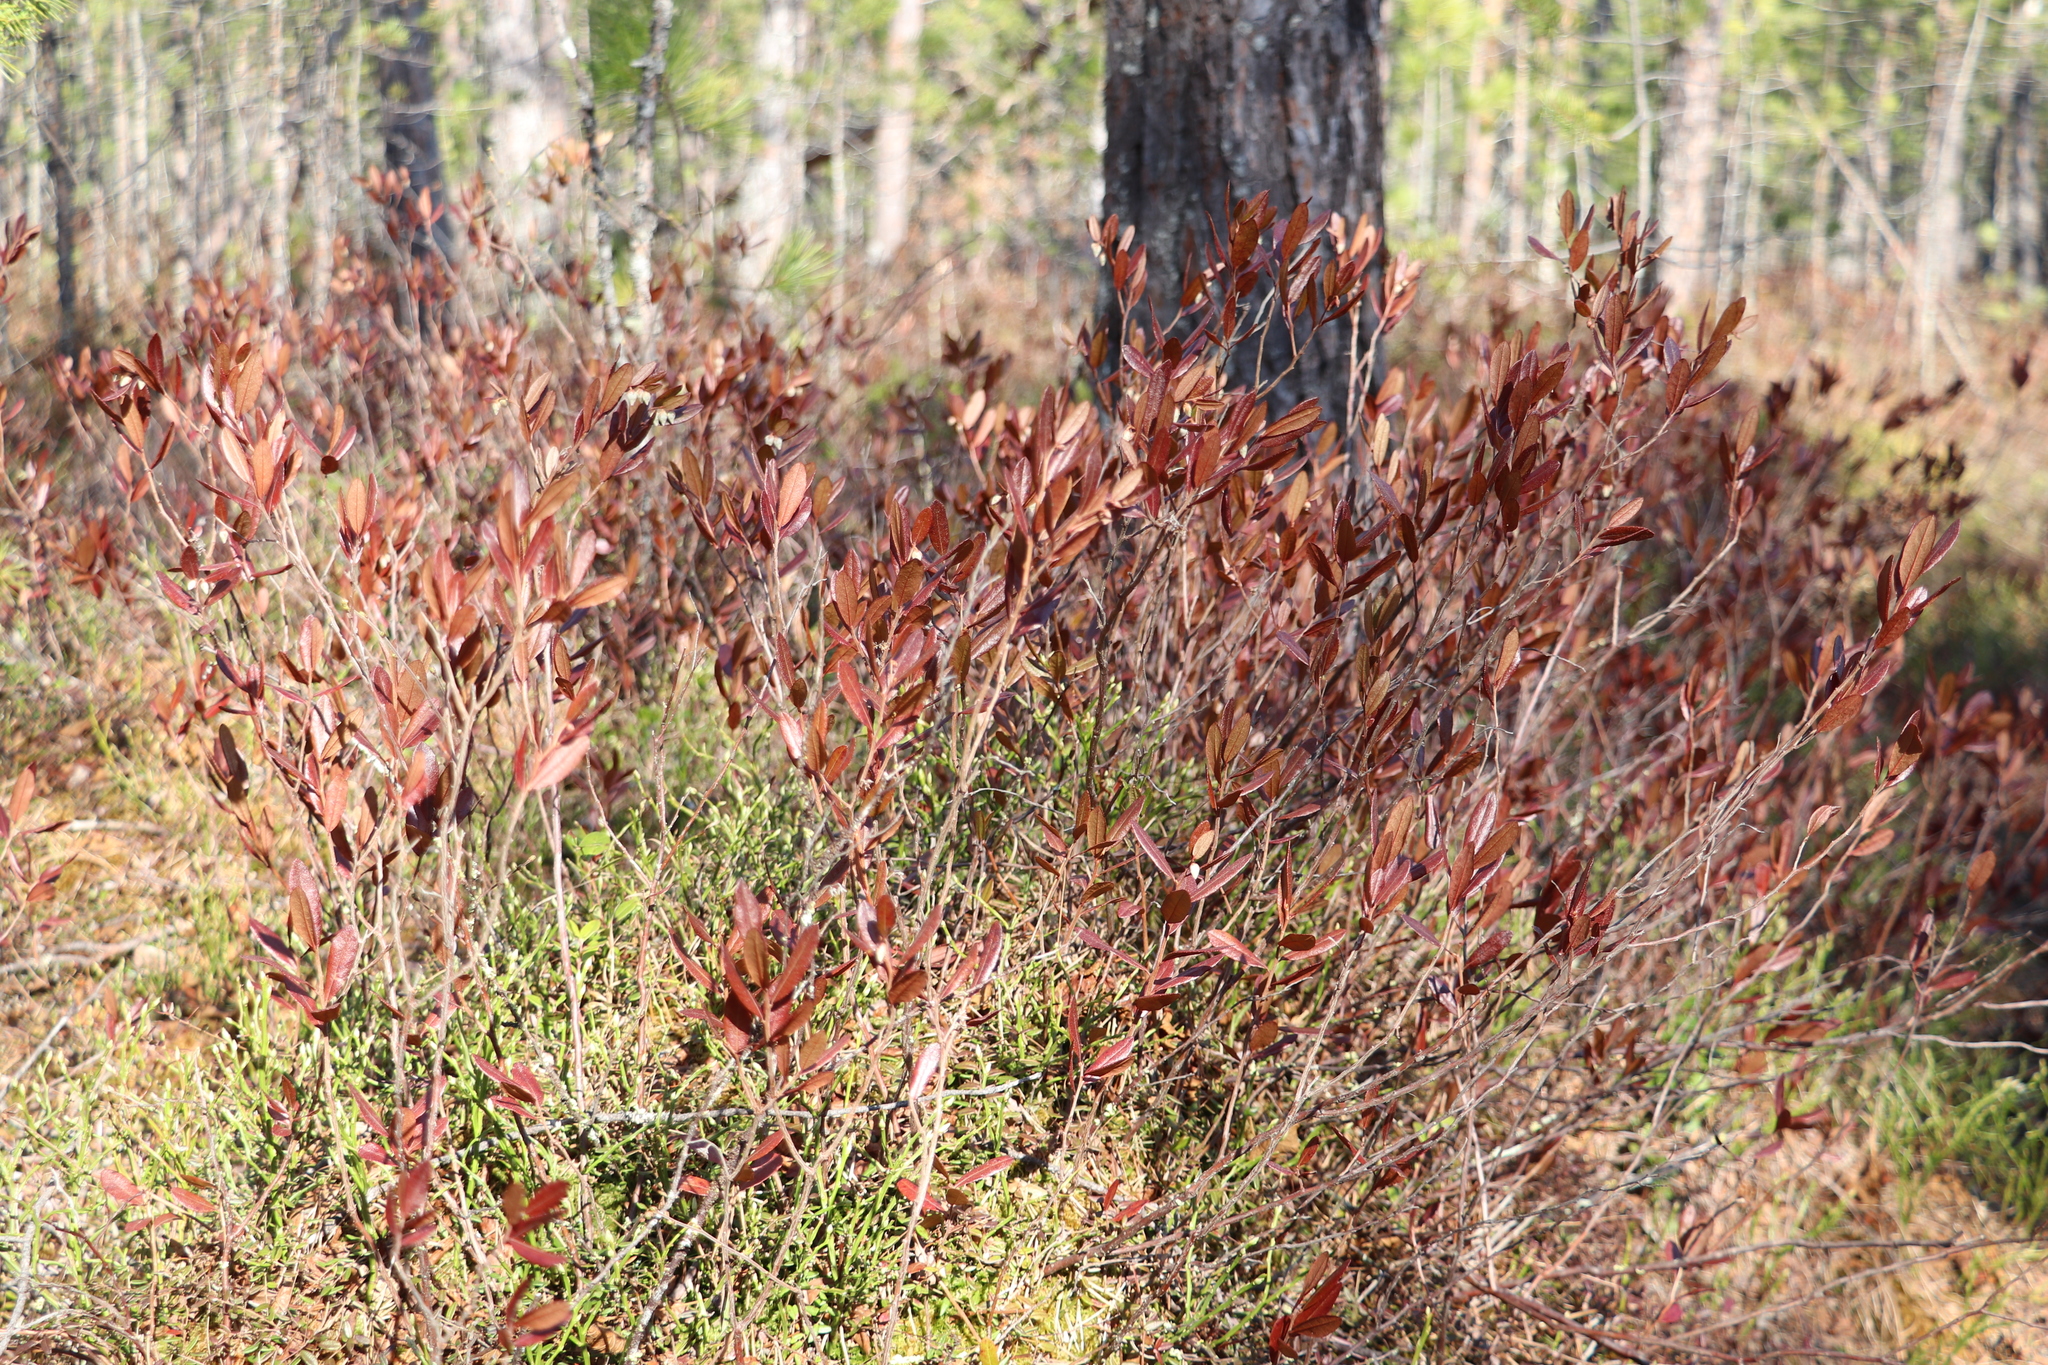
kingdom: Plantae
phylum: Tracheophyta
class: Magnoliopsida
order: Ericales
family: Ericaceae
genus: Chamaedaphne
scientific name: Chamaedaphne calyculata
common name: Leatherleaf
